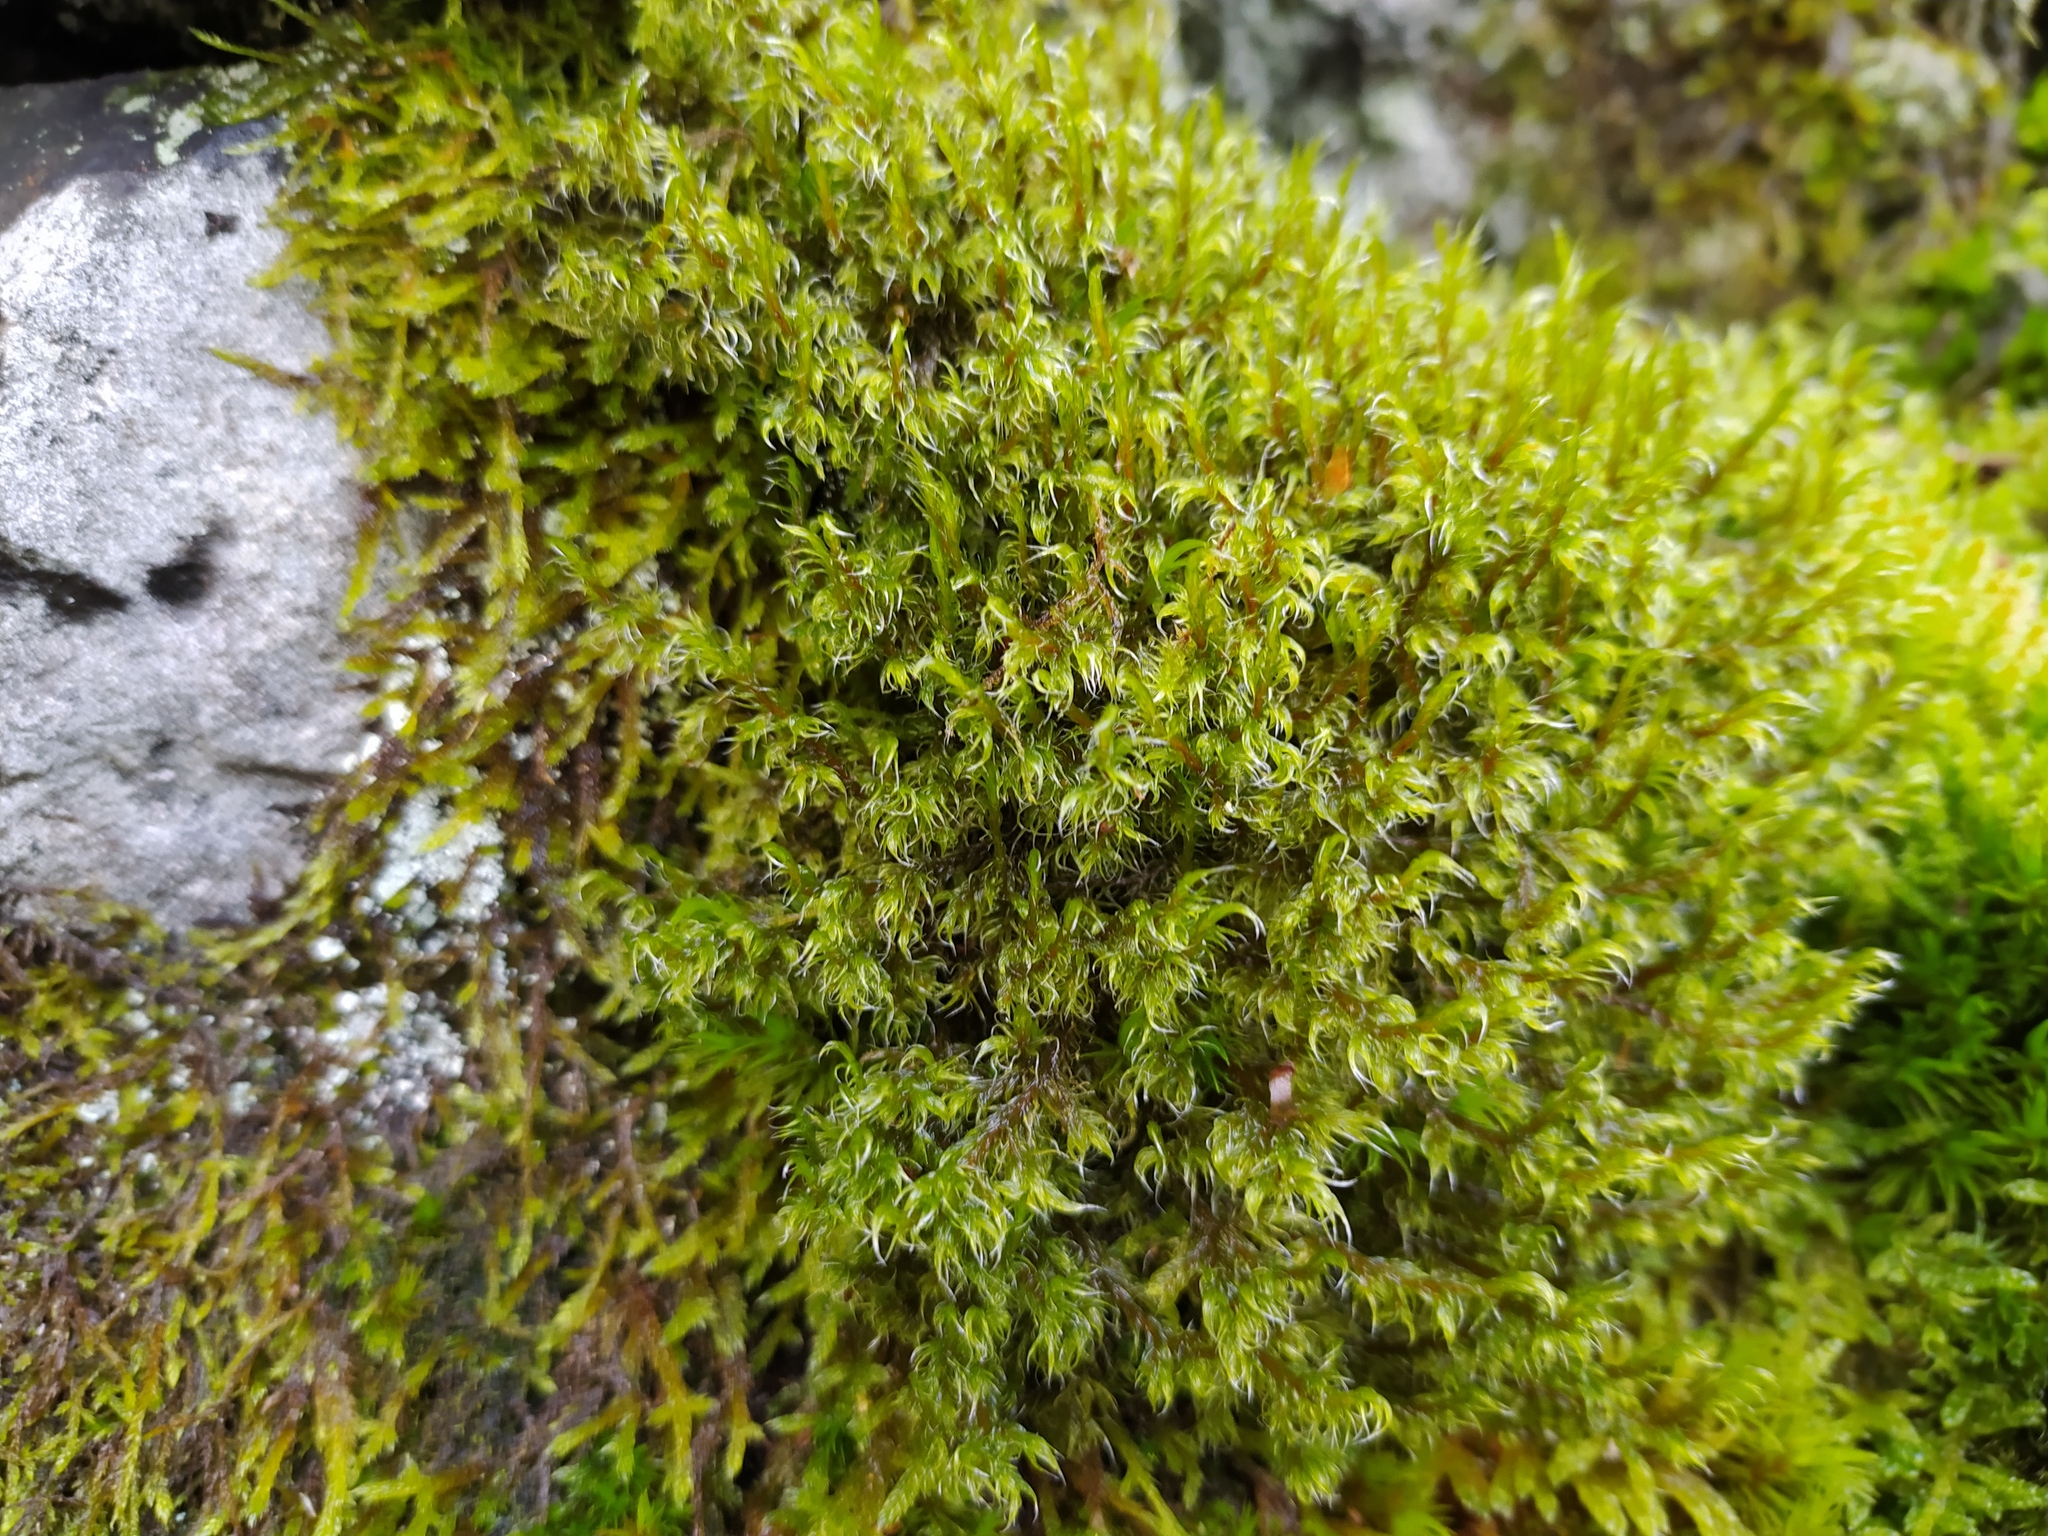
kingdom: Plantae
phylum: Bryophyta
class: Bryopsida
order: Grimmiales
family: Grimmiaceae
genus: Racomitrium
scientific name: Racomitrium lanuginosum
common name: Hoary rock moss
